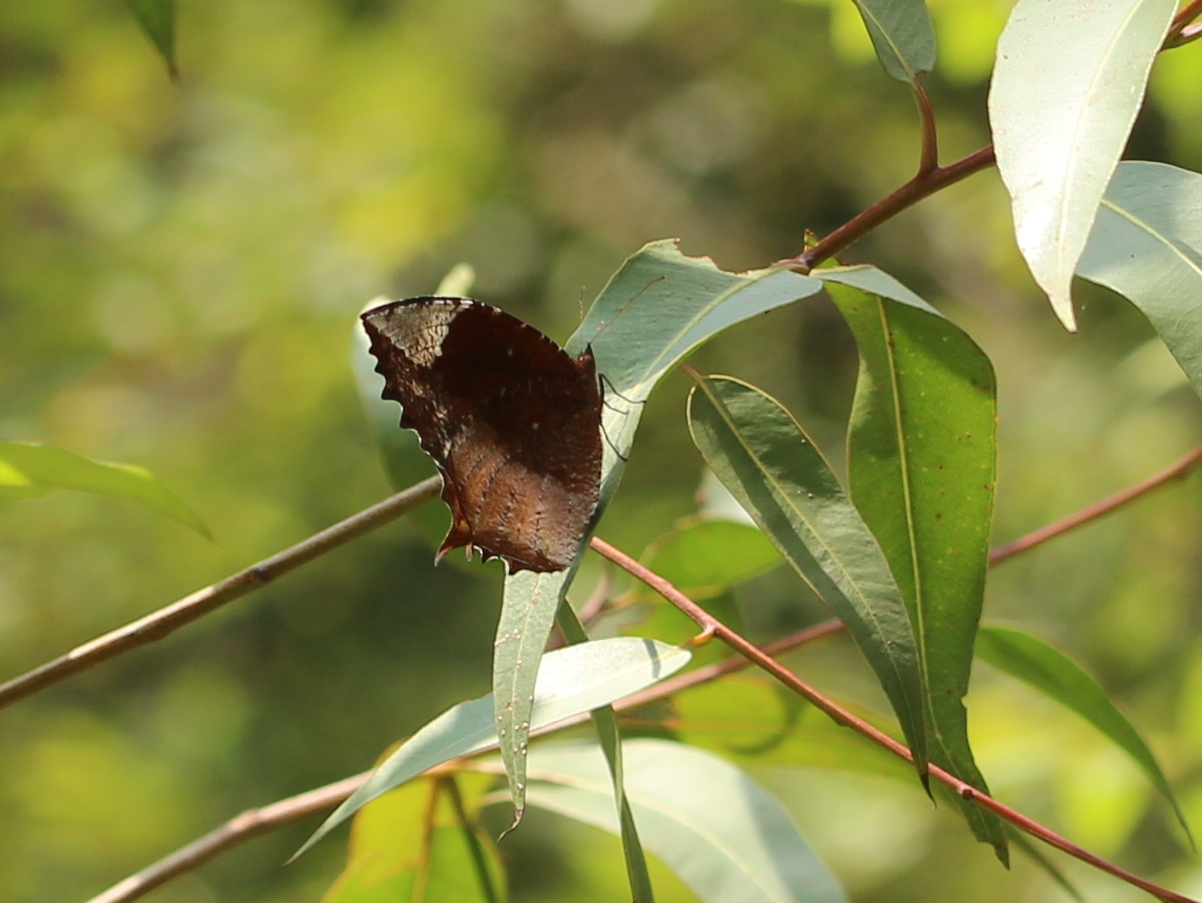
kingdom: Animalia
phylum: Arthropoda
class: Insecta
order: Lepidoptera
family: Nymphalidae
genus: Elymnias
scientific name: Elymnias caudata
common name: Tailed palmfly
